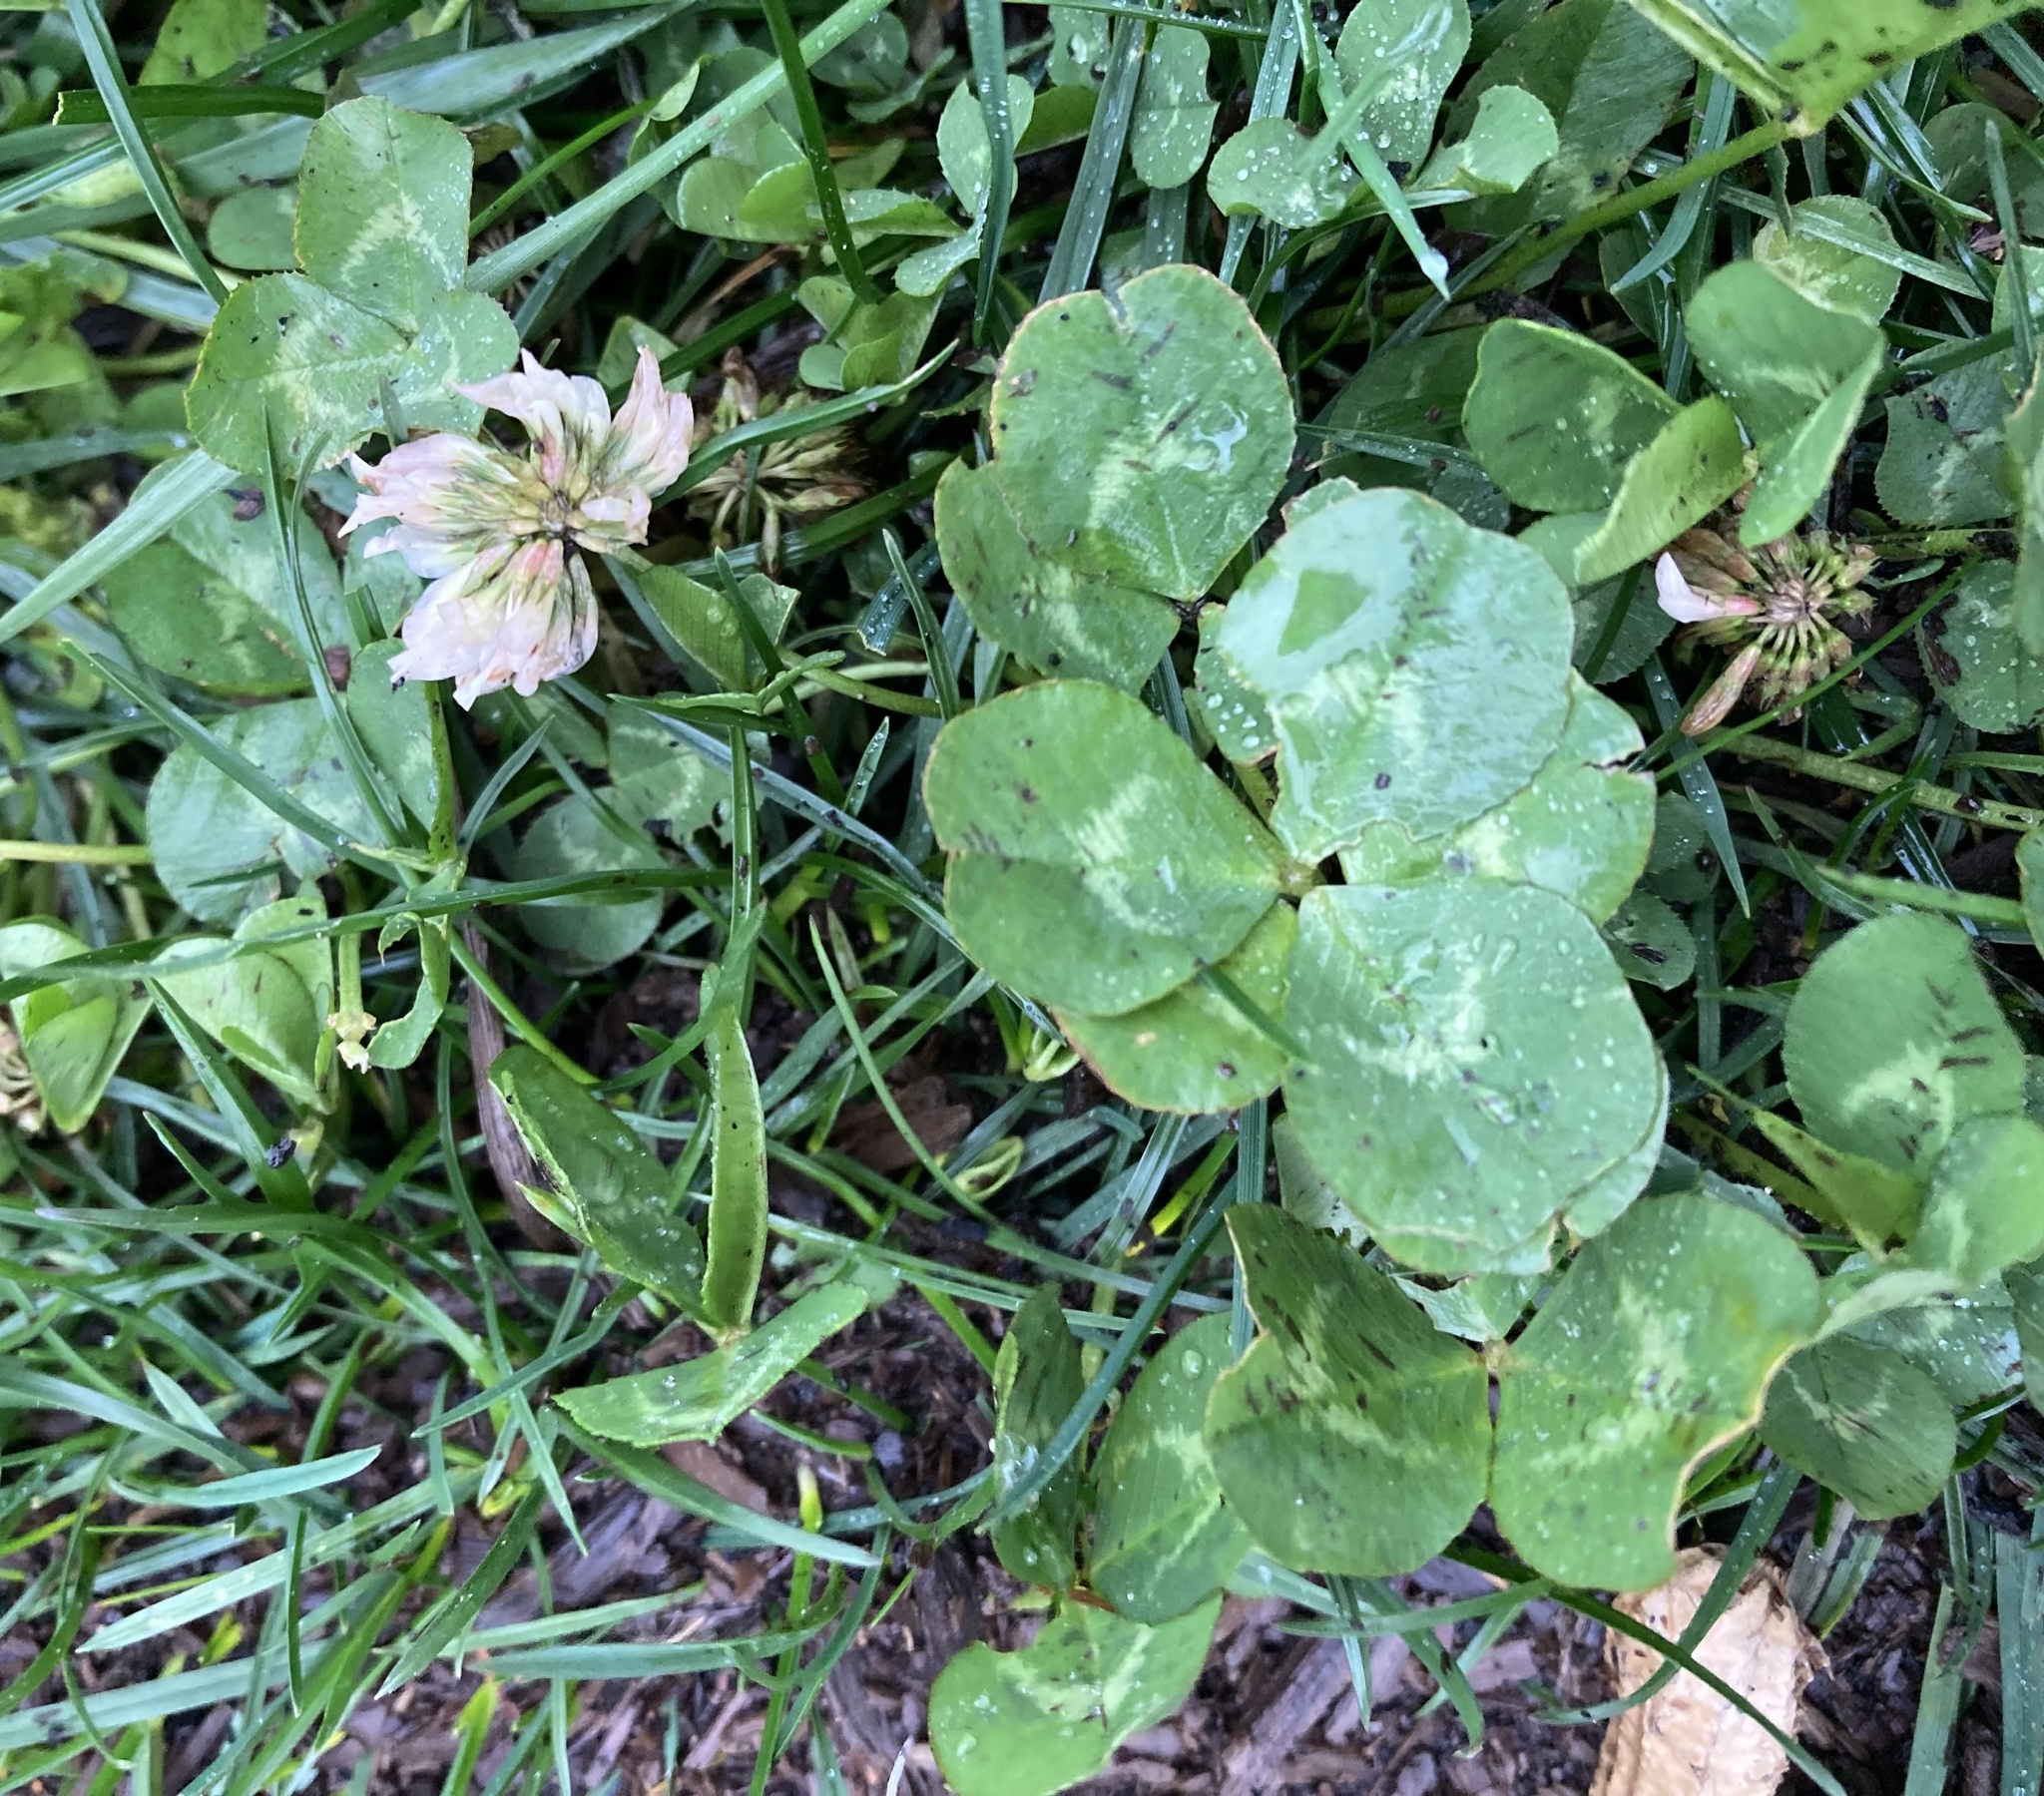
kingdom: Plantae
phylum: Tracheophyta
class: Magnoliopsida
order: Fabales
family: Fabaceae
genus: Trifolium
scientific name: Trifolium repens
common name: White clover
